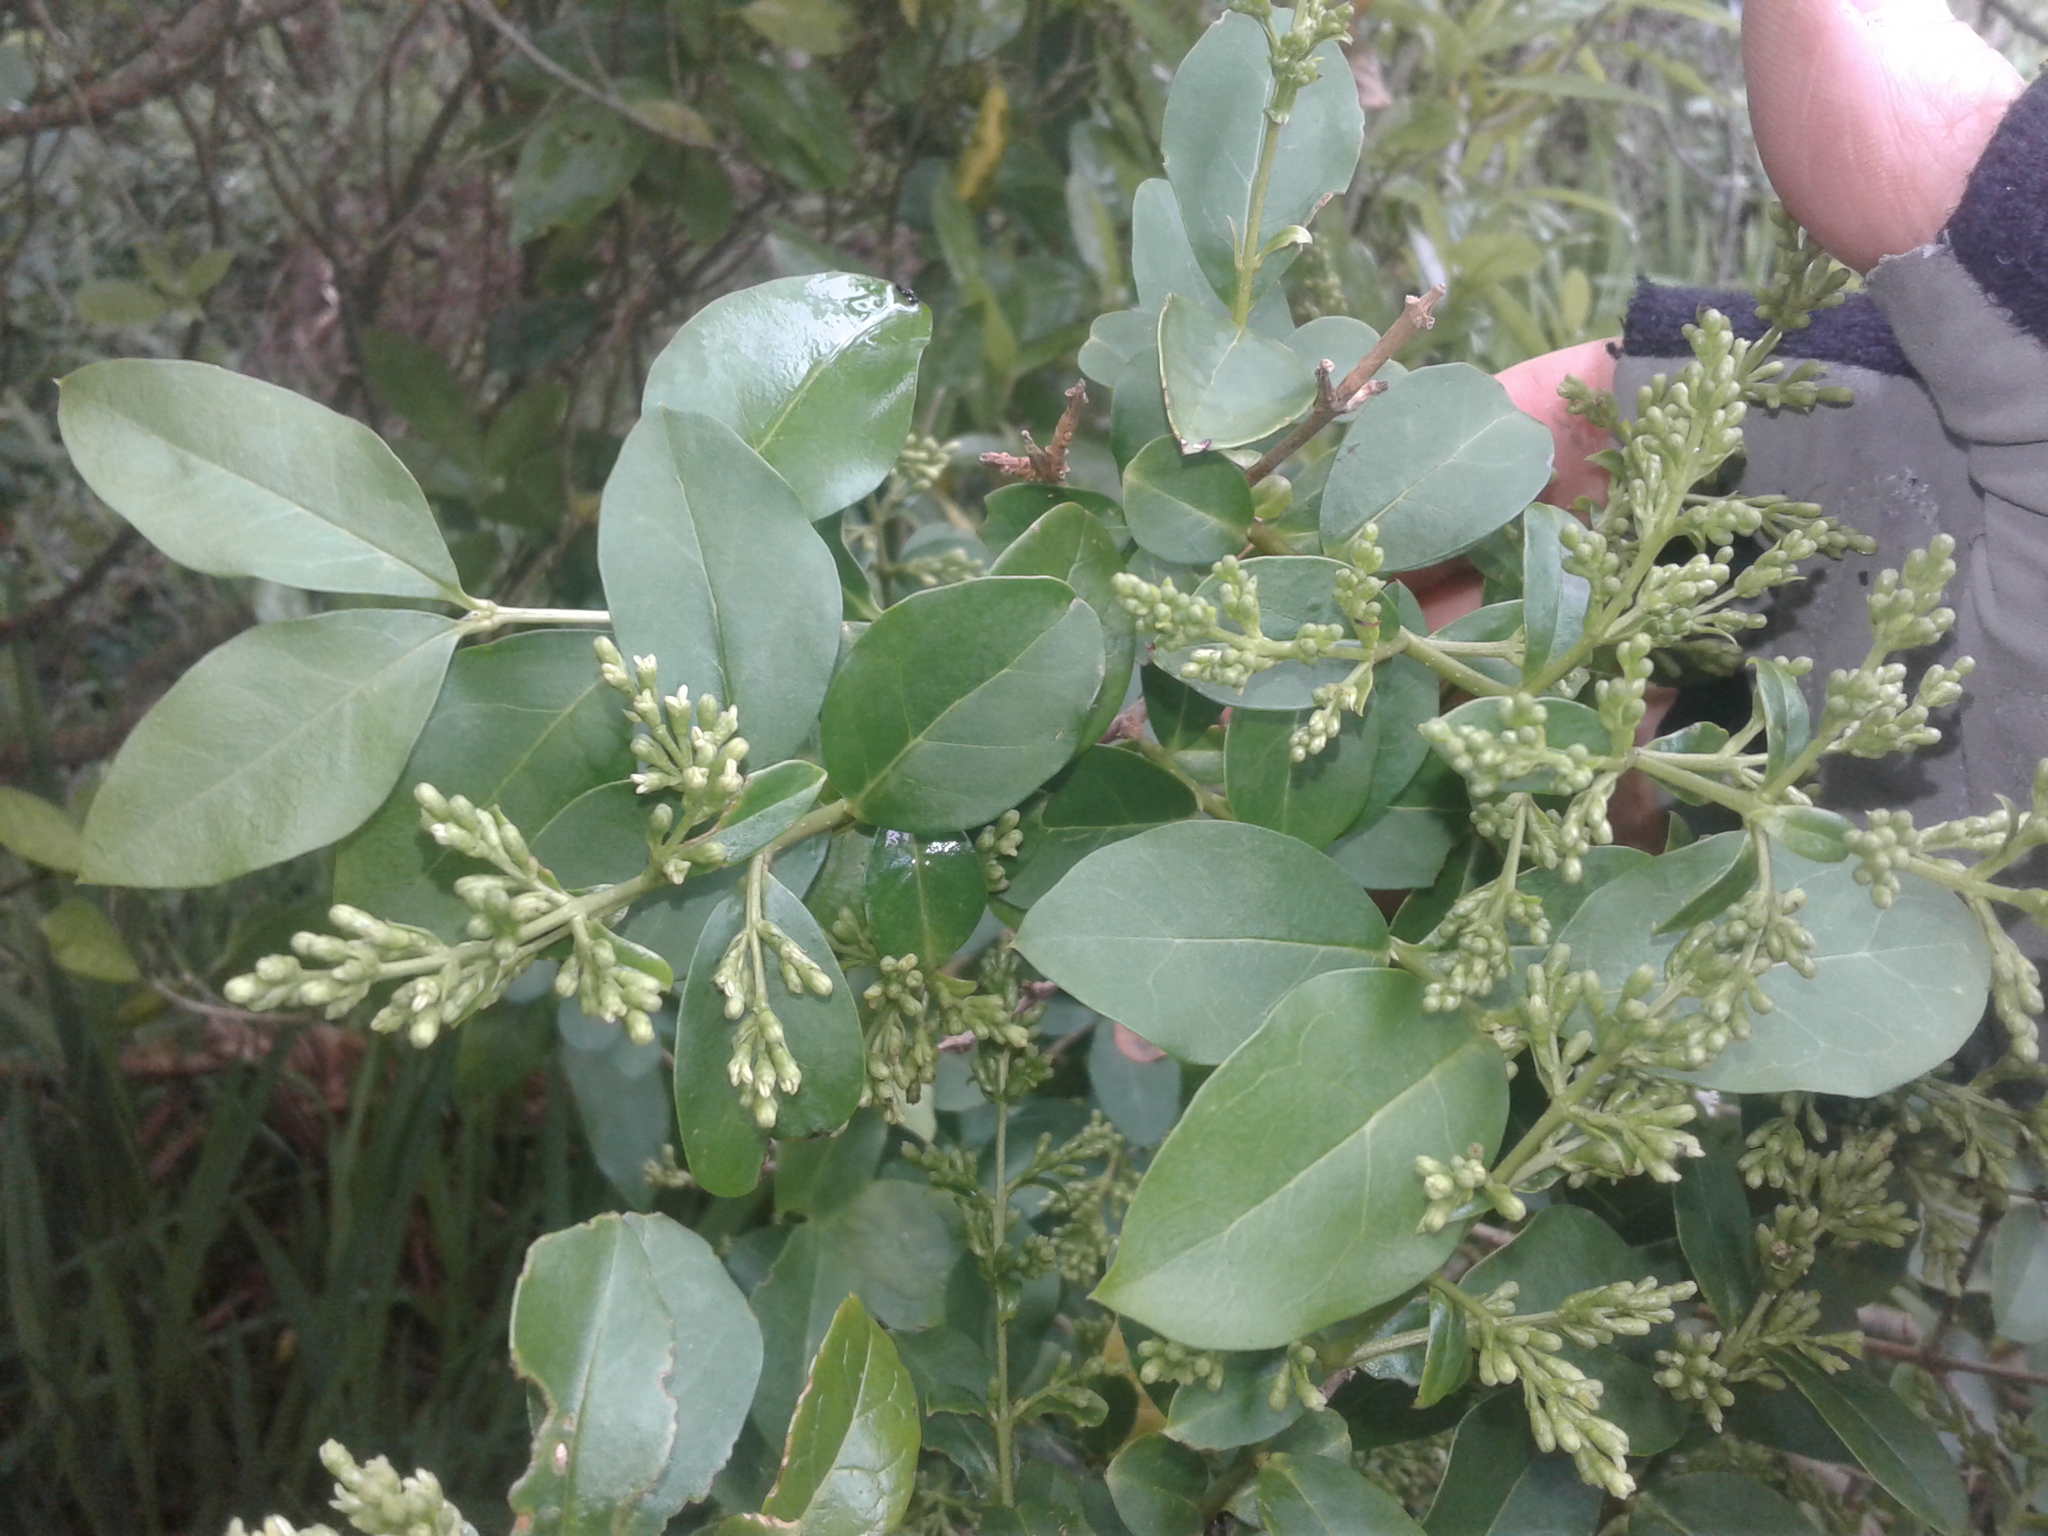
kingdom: Plantae
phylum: Tracheophyta
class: Magnoliopsida
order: Lamiales
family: Oleaceae
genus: Ligustrum
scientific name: Ligustrum ovalifolium
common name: California privet
